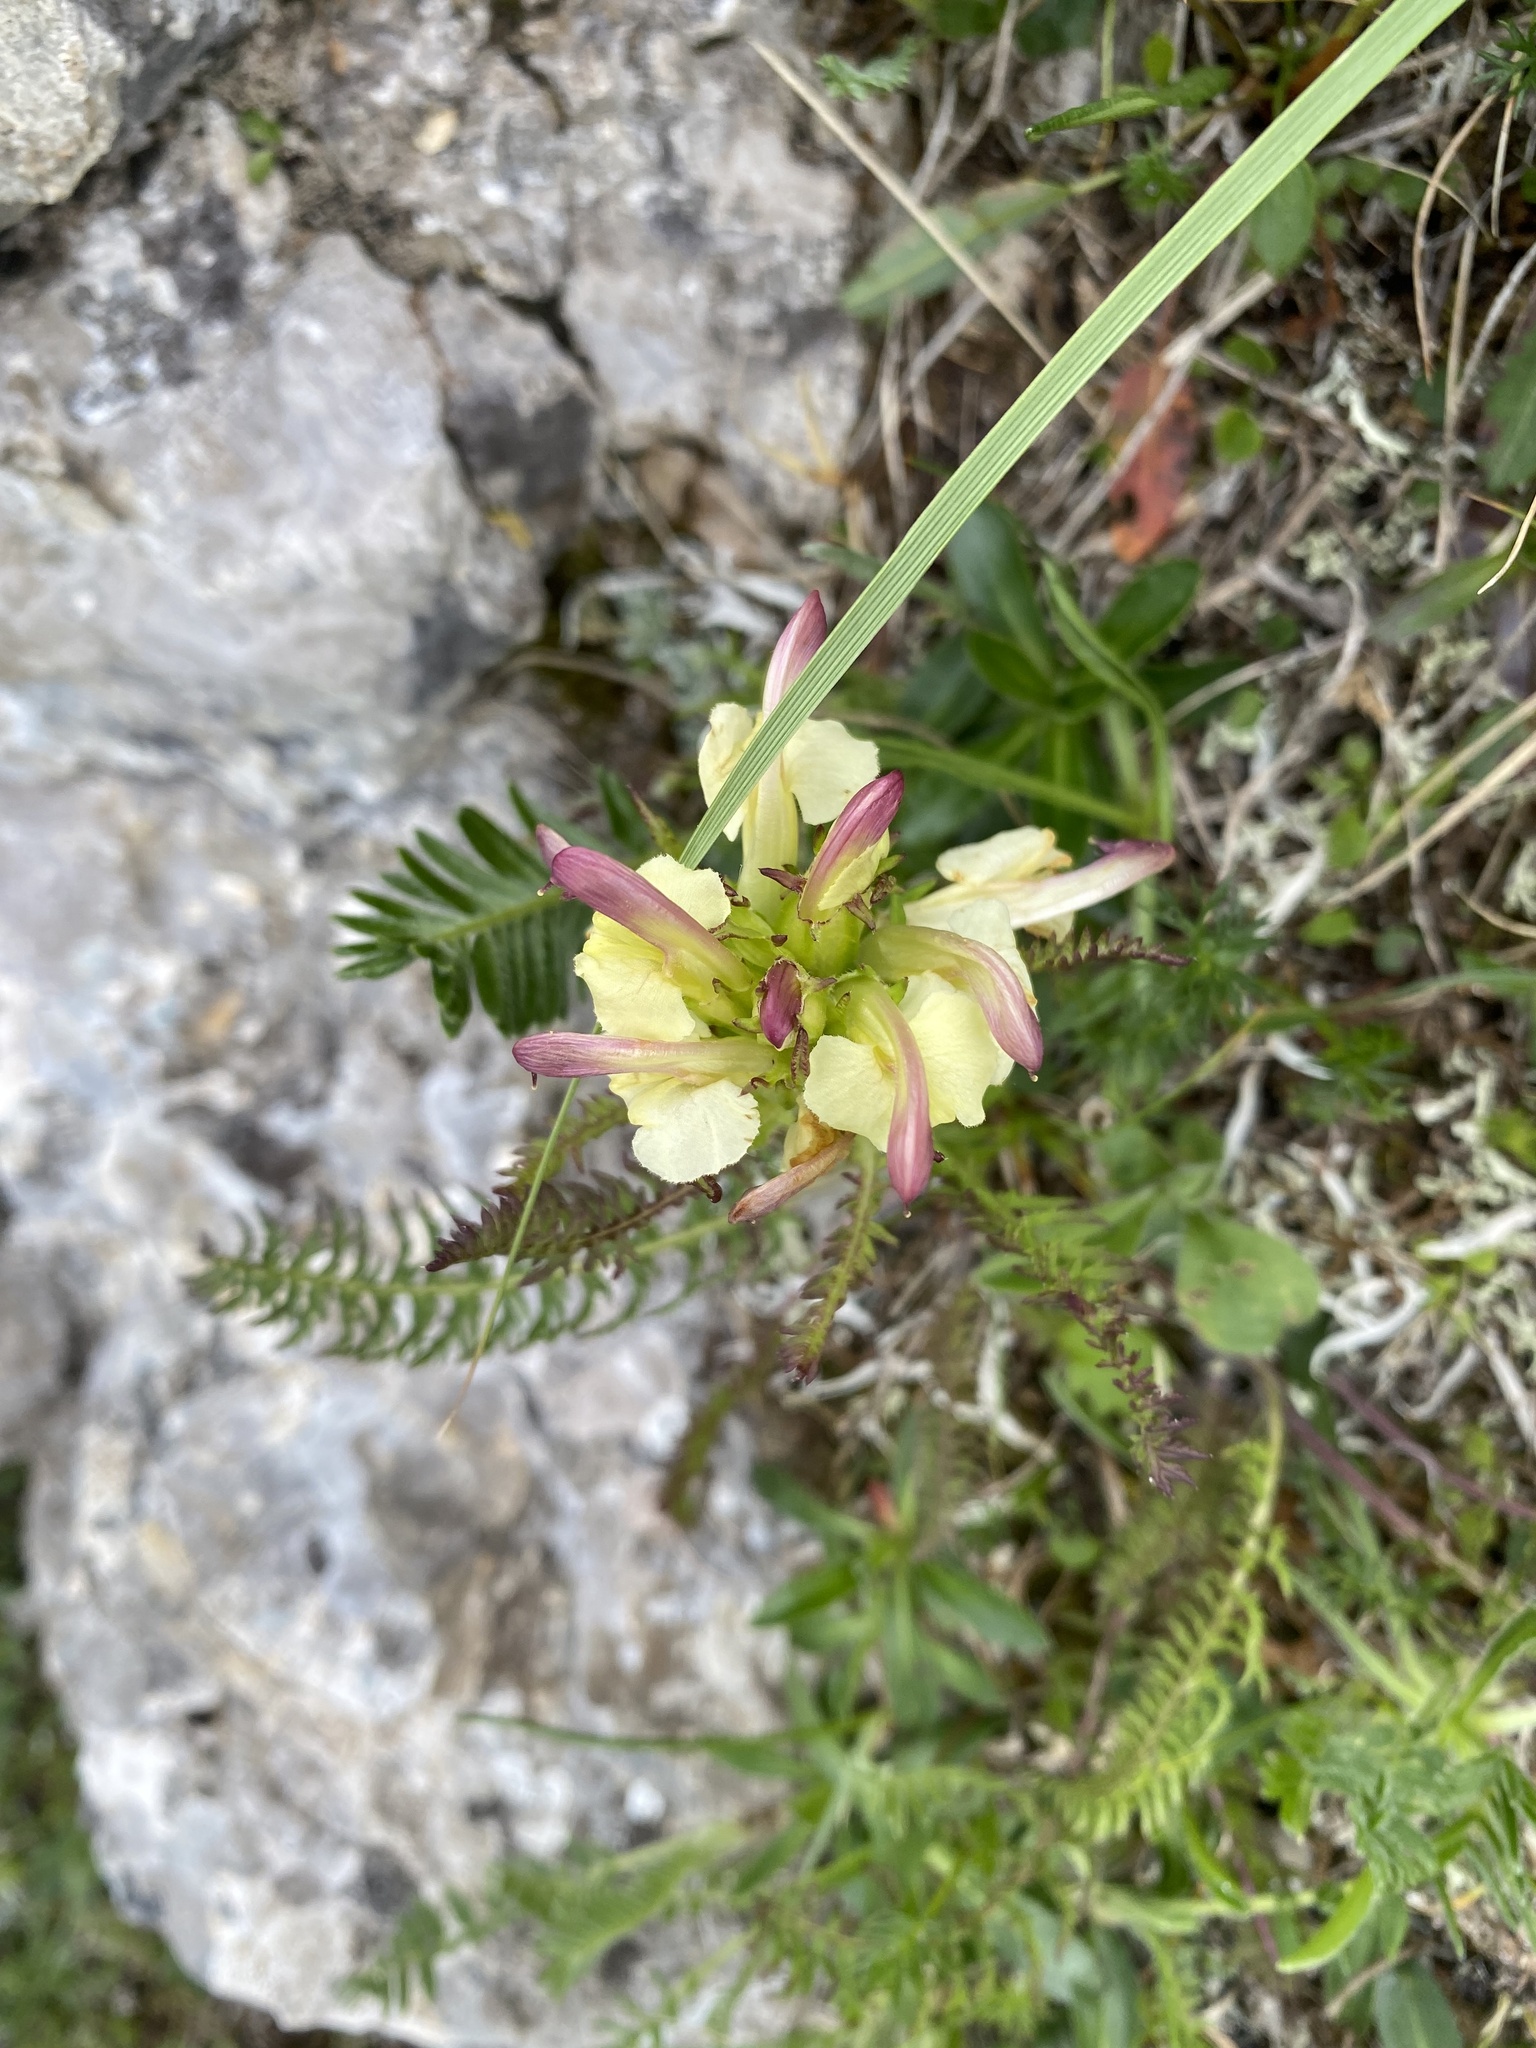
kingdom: Plantae
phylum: Tracheophyta
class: Magnoliopsida
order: Lamiales
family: Orobanchaceae
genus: Pedicularis
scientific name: Pedicularis chroorrhyncha
